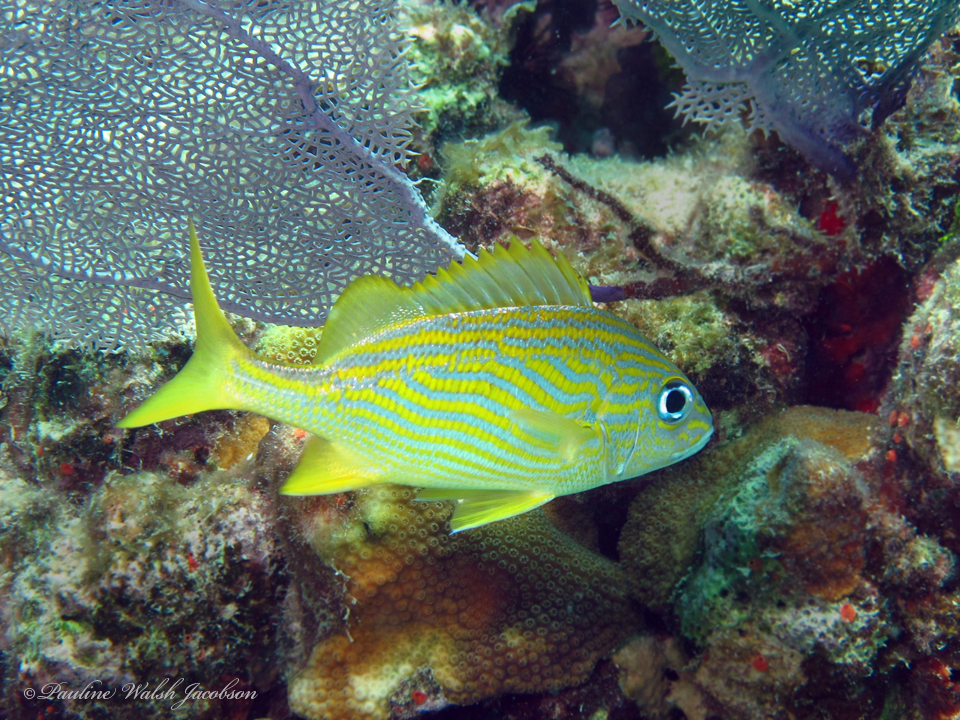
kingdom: Animalia
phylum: Chordata
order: Perciformes
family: Haemulidae
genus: Haemulon
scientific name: Haemulon flavolineatum
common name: French grunt
